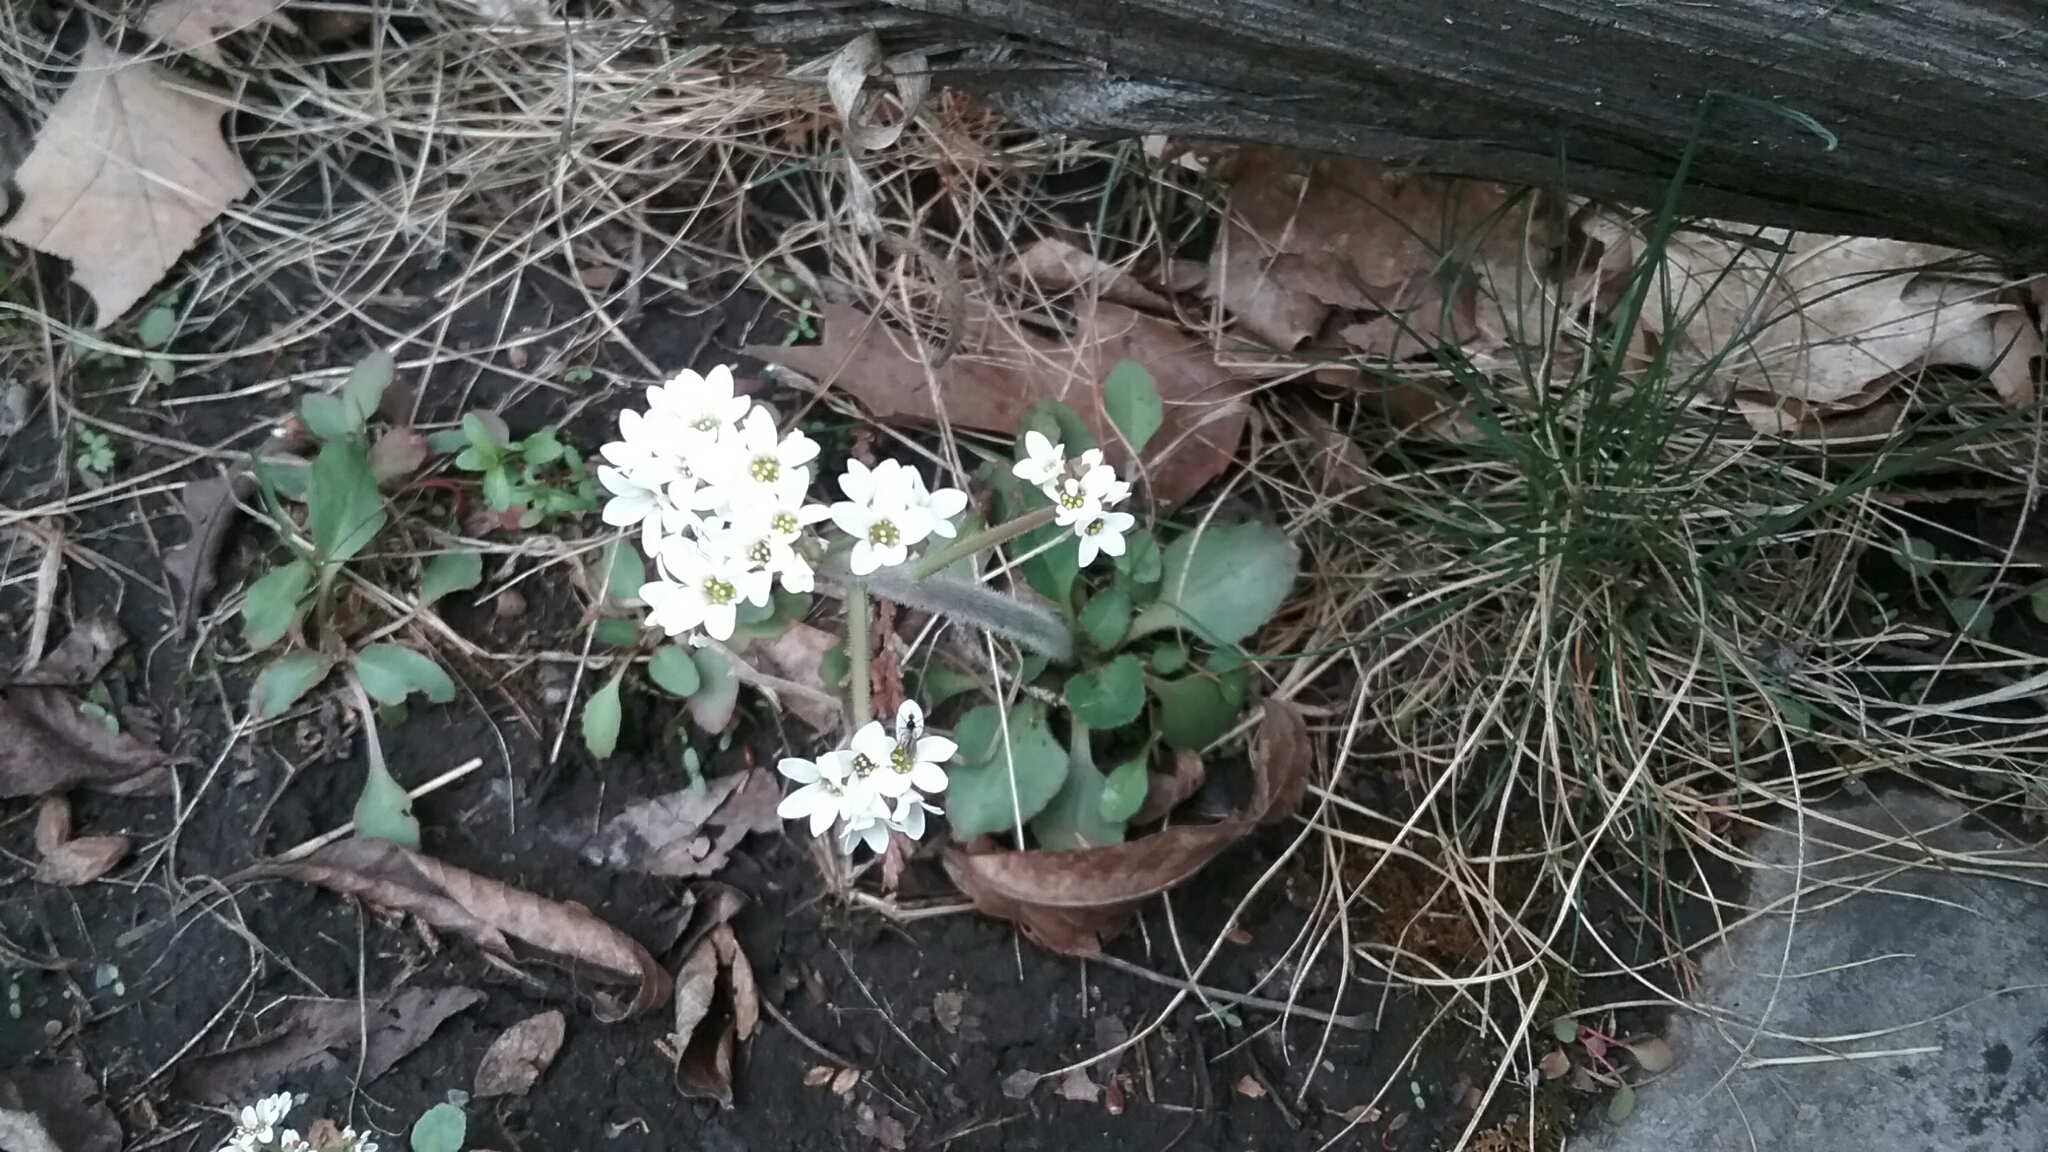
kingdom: Plantae
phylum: Tracheophyta
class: Magnoliopsida
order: Saxifragales
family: Saxifragaceae
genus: Micranthes
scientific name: Micranthes virginiensis
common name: Early saxifrage
